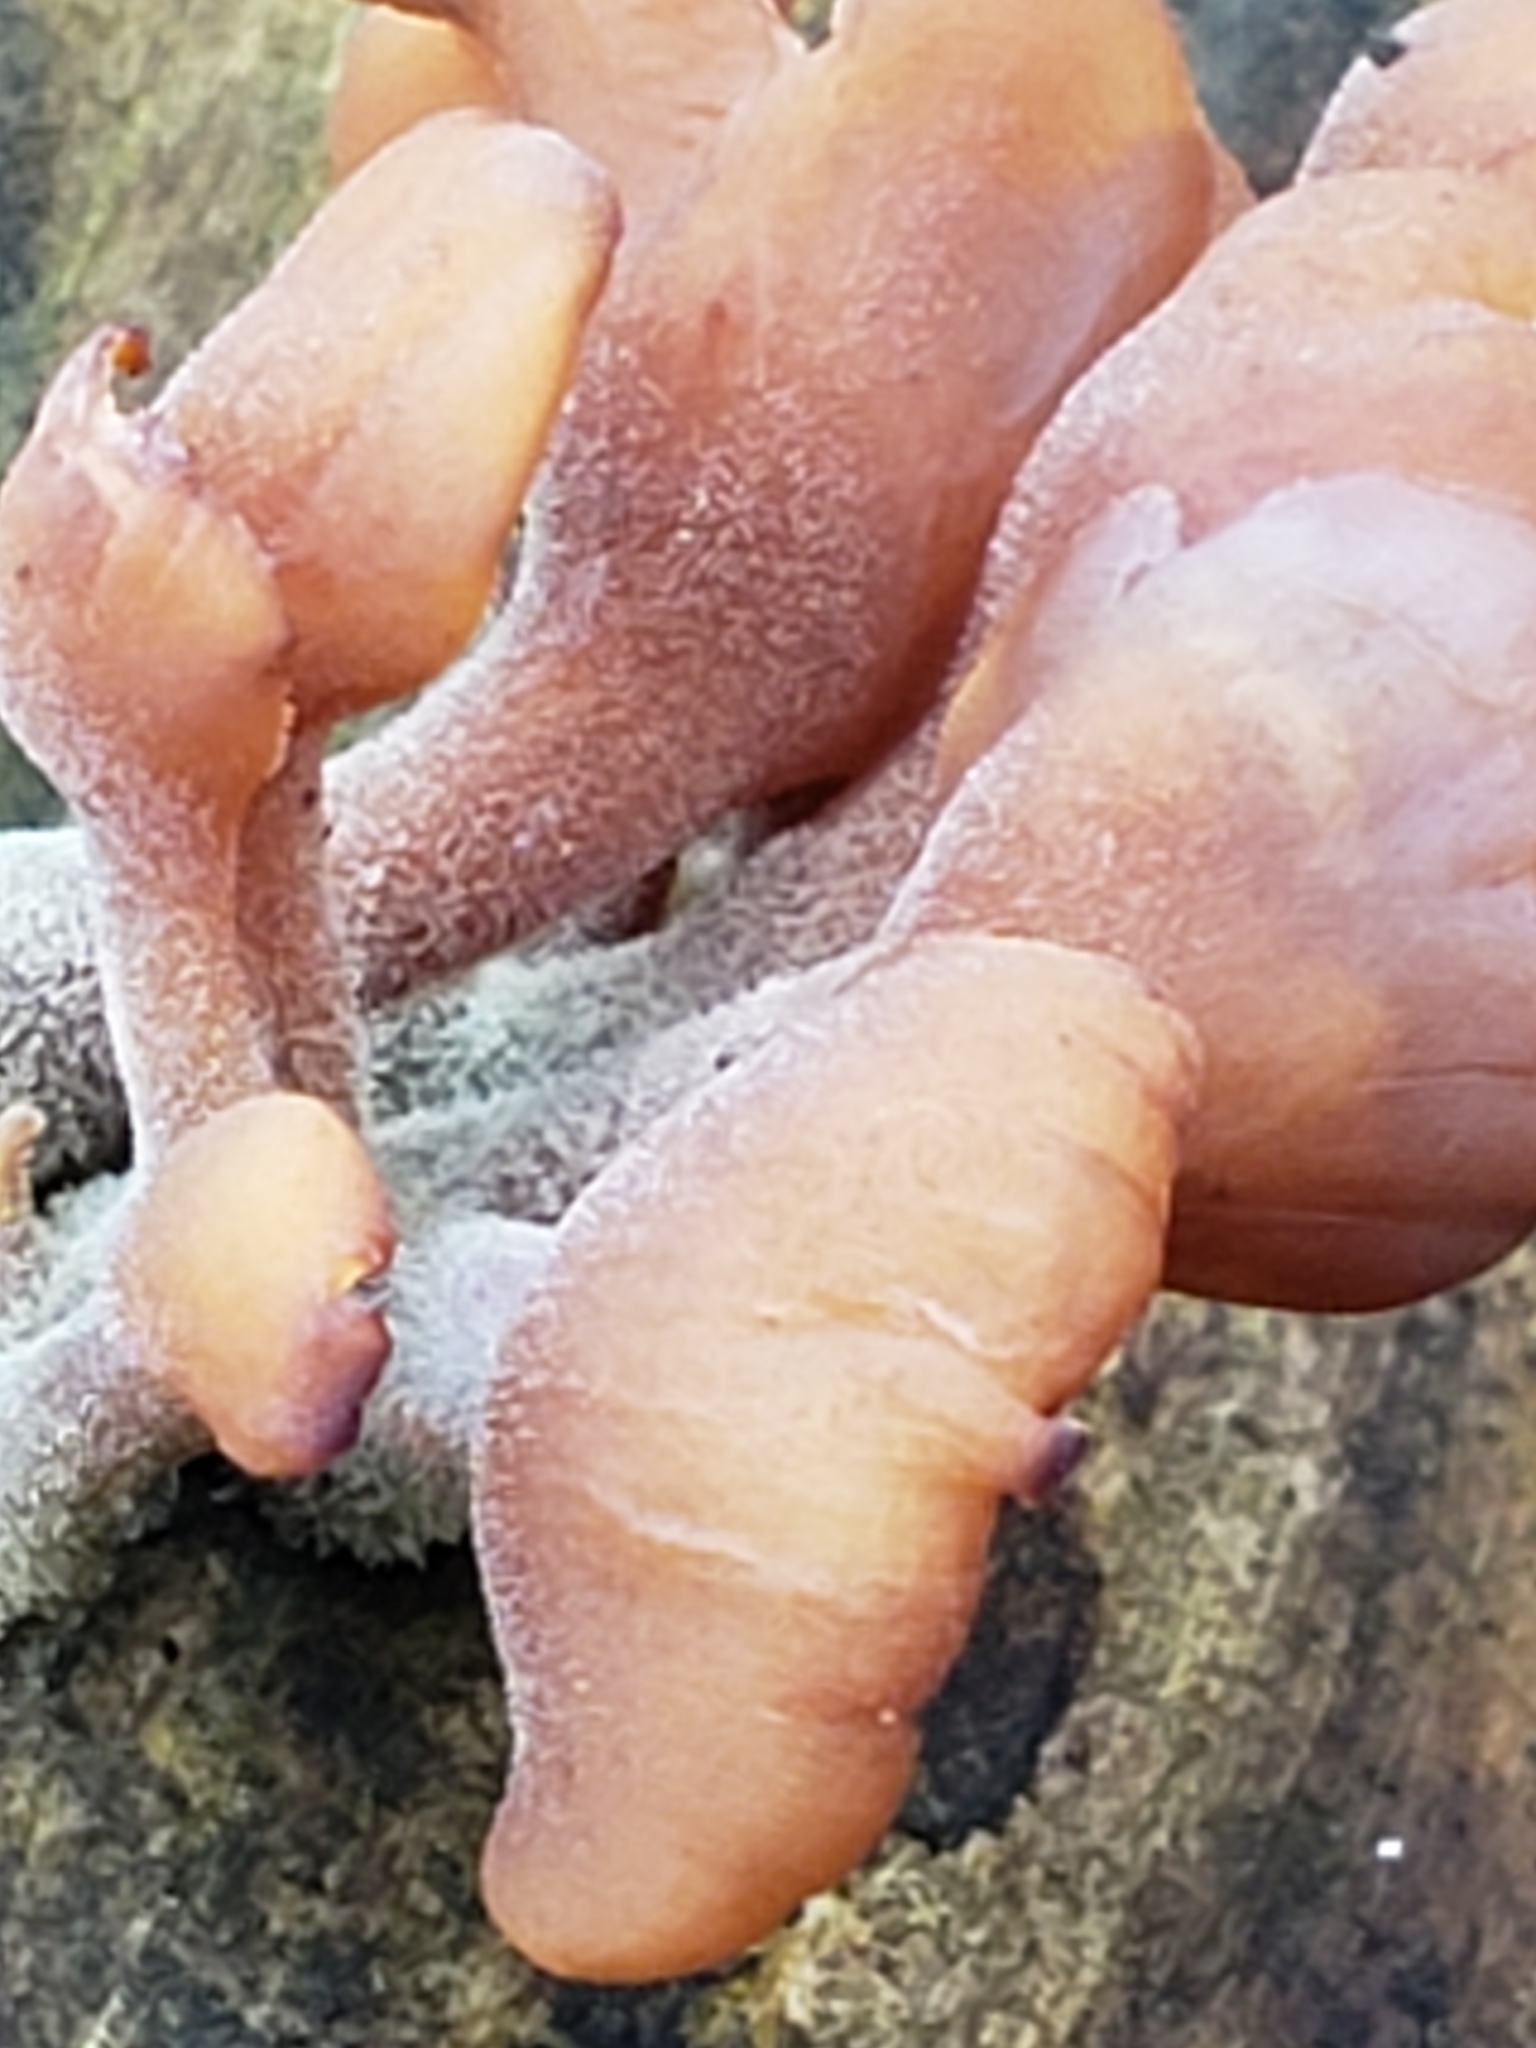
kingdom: Fungi
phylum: Basidiomycota
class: Dacrymycetes
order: Dacrymycetales
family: Dacrymycetaceae
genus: Dacryopinax
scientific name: Dacryopinax elegans
